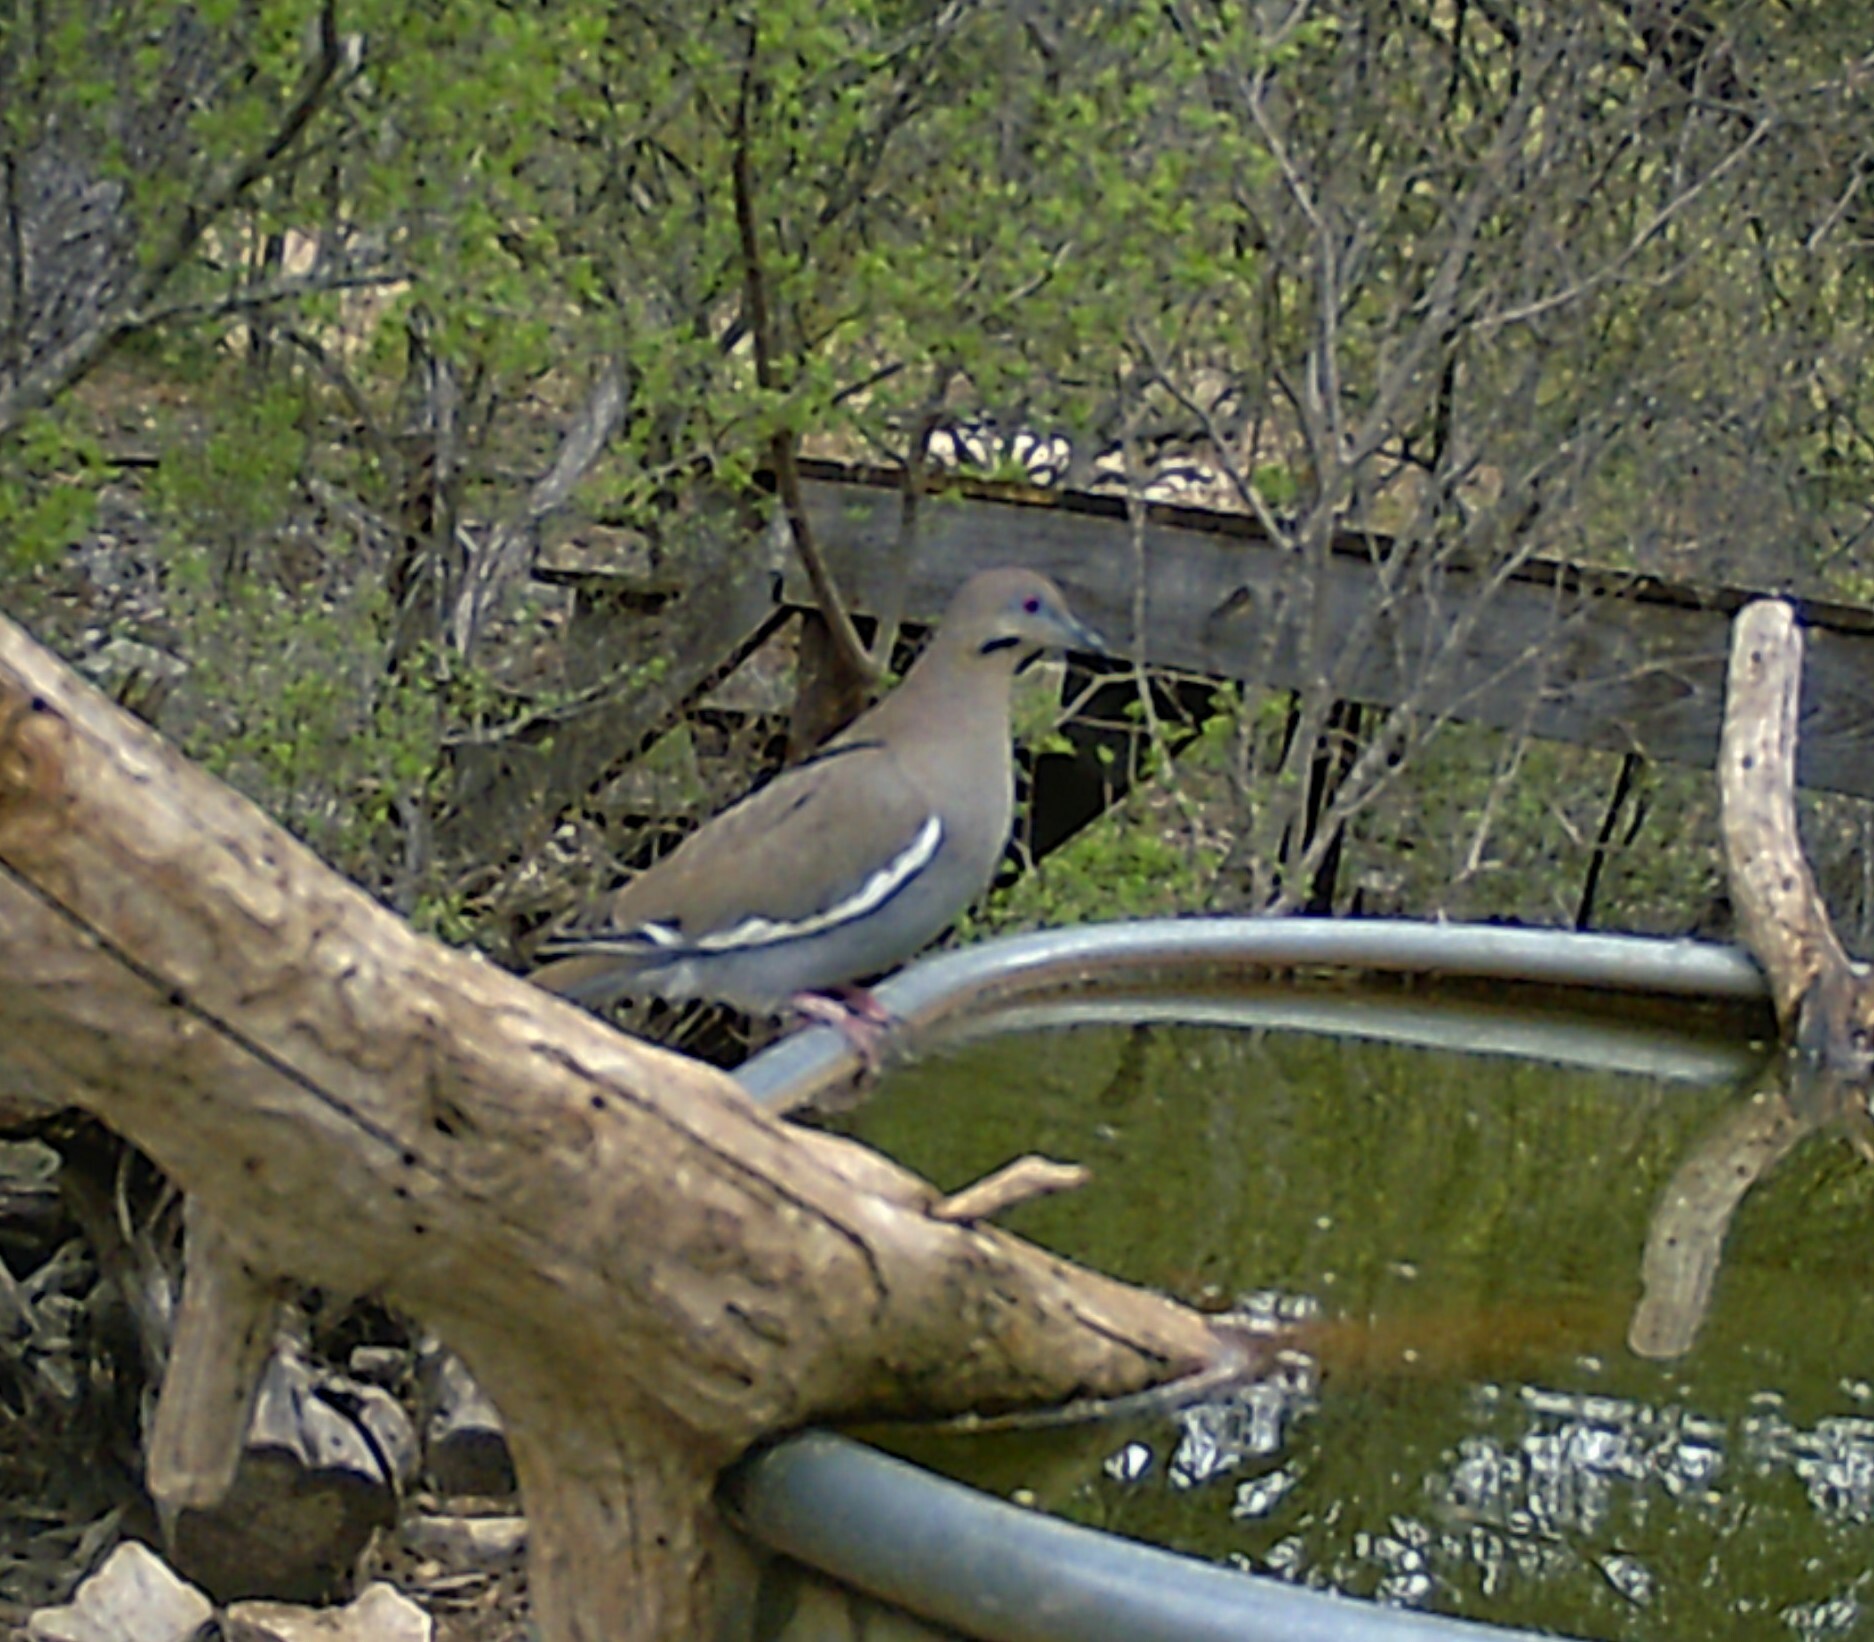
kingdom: Animalia
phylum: Chordata
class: Aves
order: Columbiformes
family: Columbidae
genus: Zenaida
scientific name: Zenaida asiatica
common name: White-winged dove
